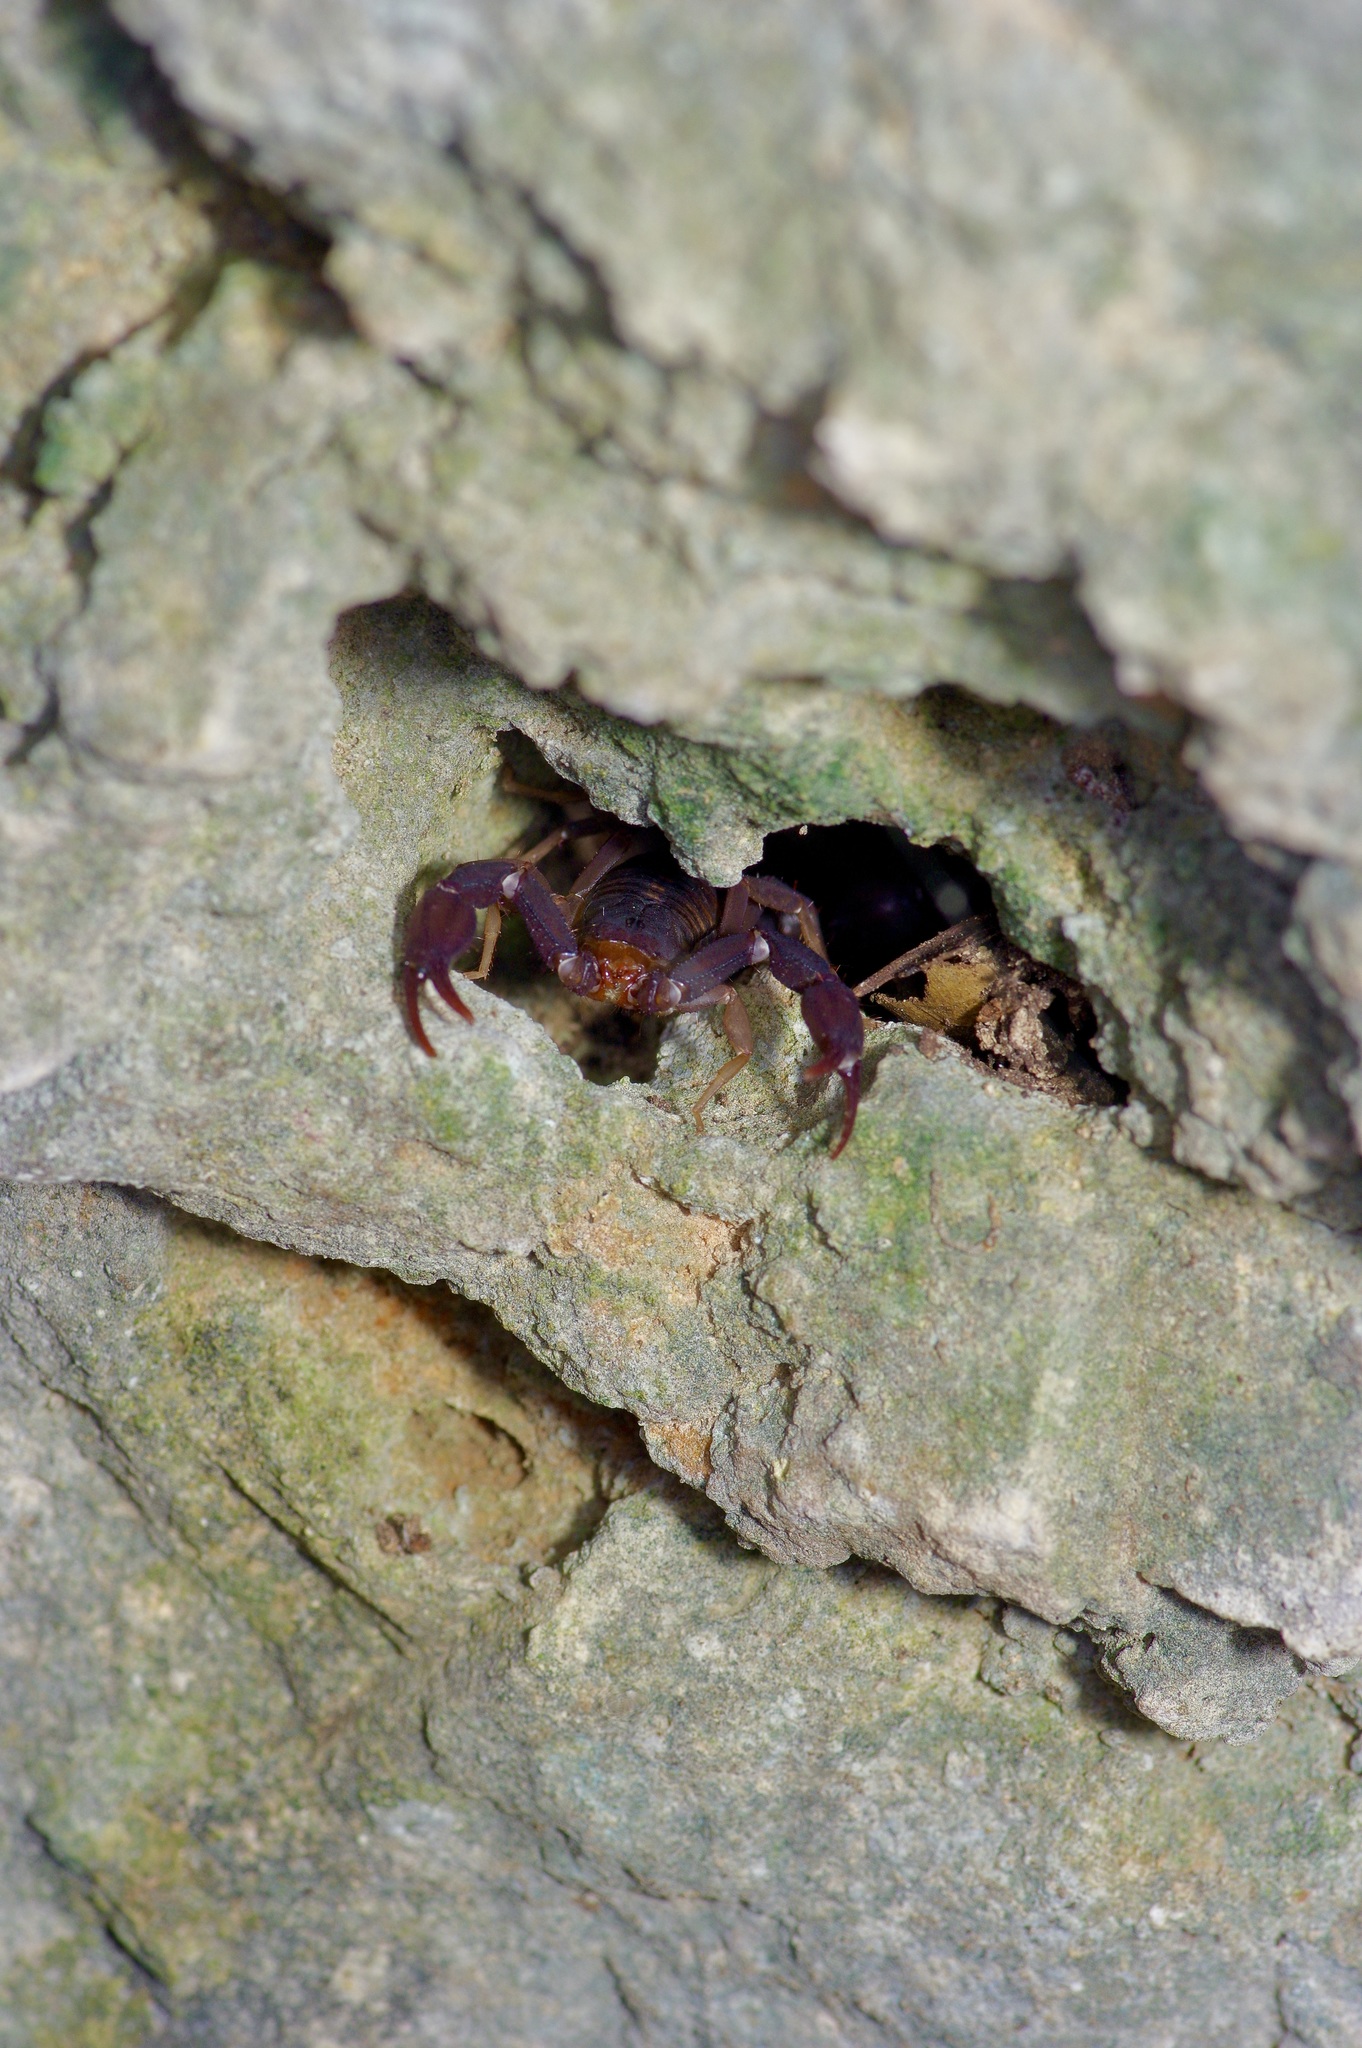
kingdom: Animalia
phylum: Arthropoda
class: Arachnida
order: Scorpiones
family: Vaejovidae
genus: Pseudouroctonus
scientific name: Pseudouroctonus reddelli
